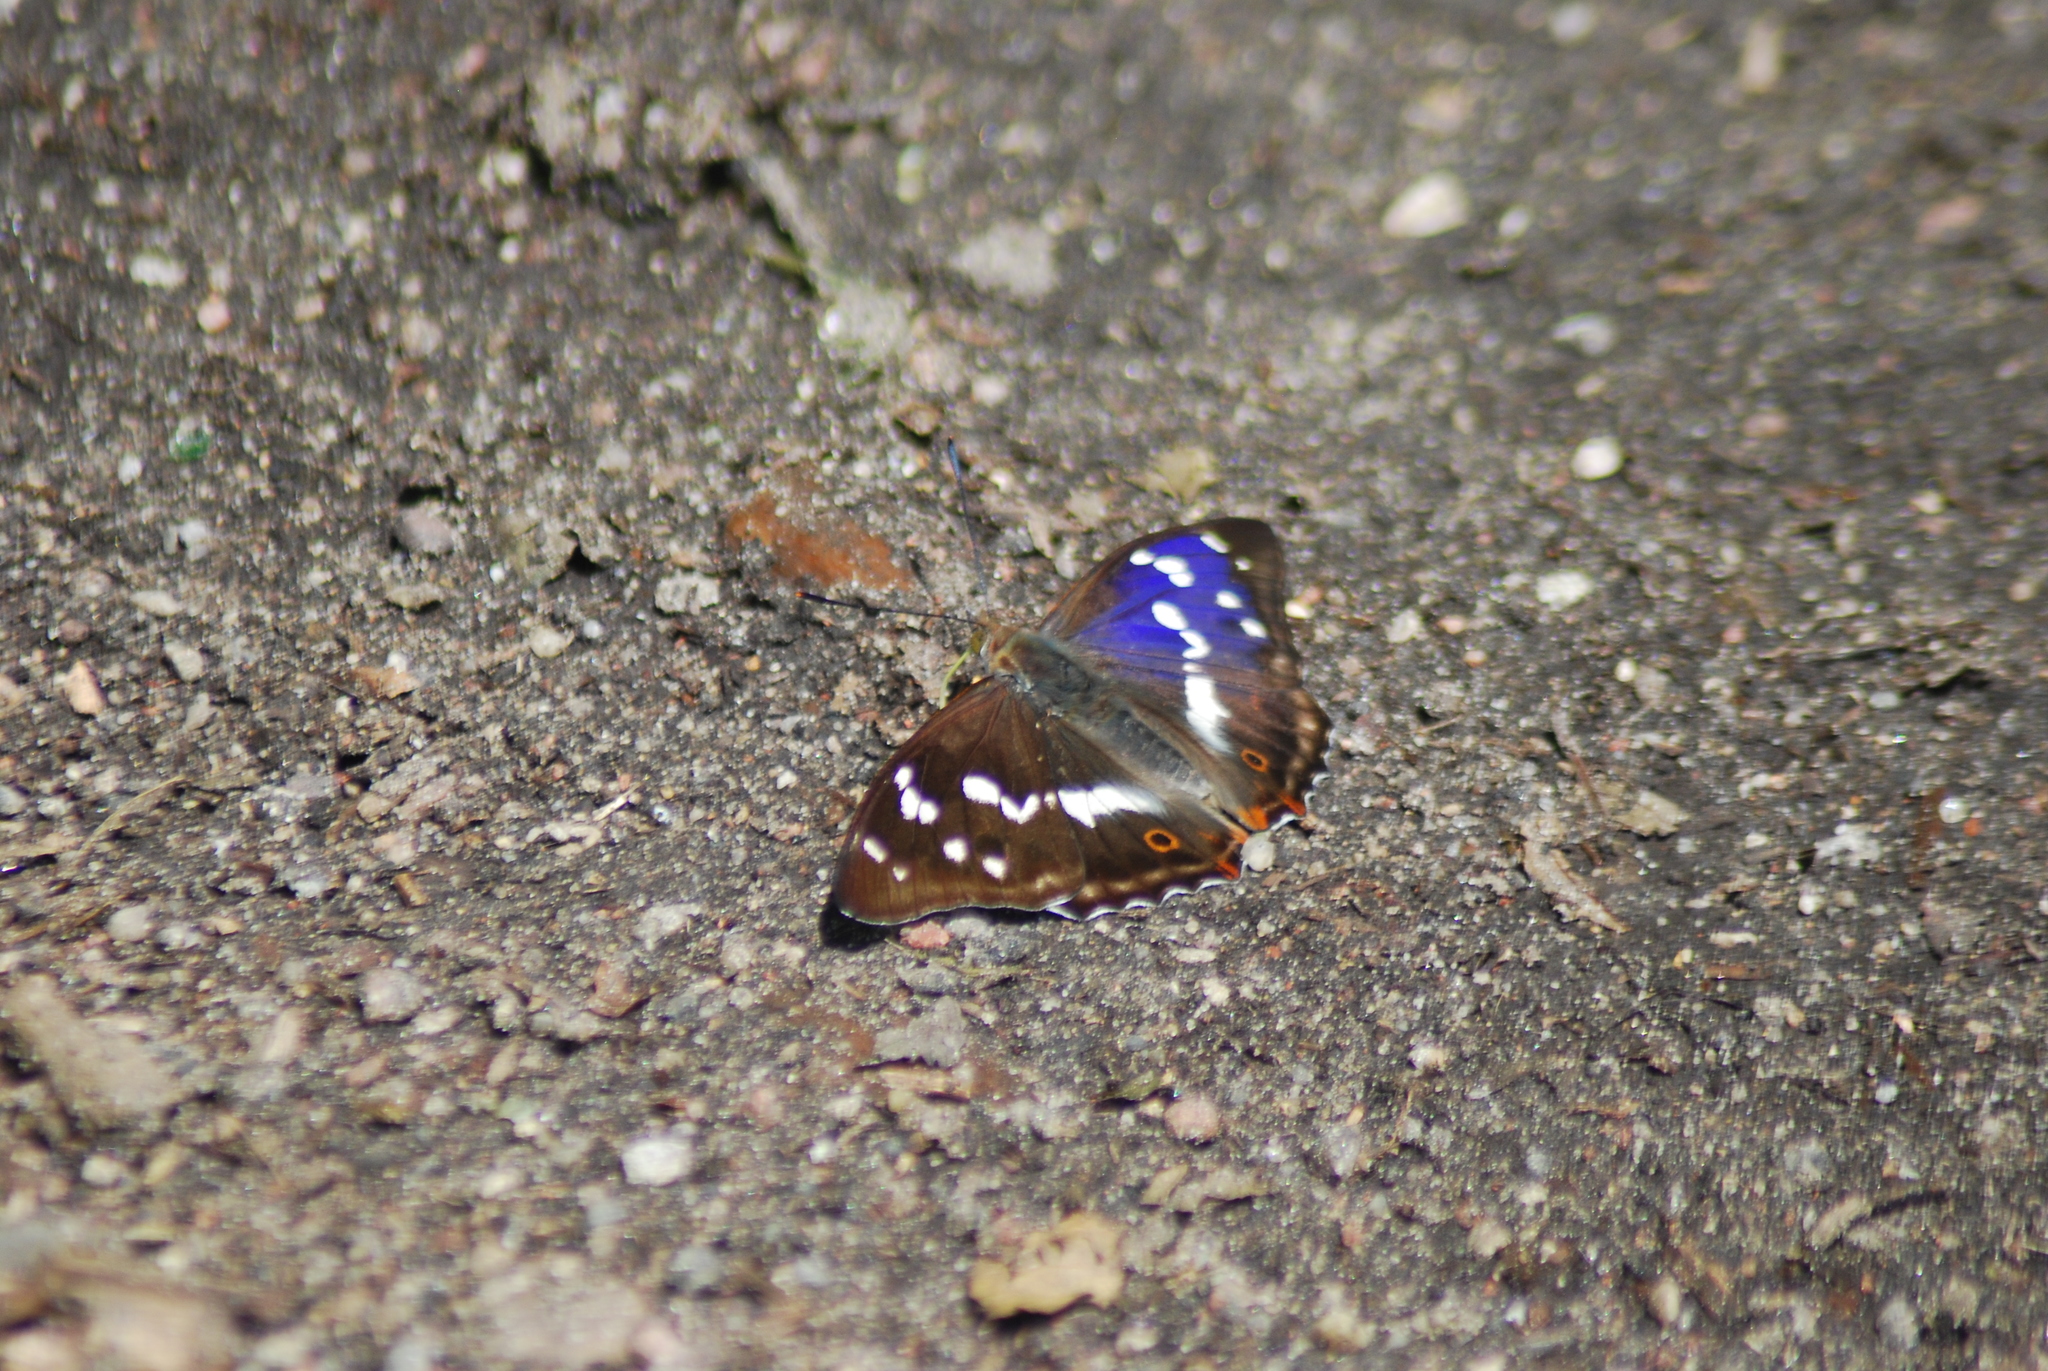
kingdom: Animalia
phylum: Arthropoda
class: Insecta
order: Lepidoptera
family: Nymphalidae
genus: Apatura
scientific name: Apatura iris
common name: Purple emperor
